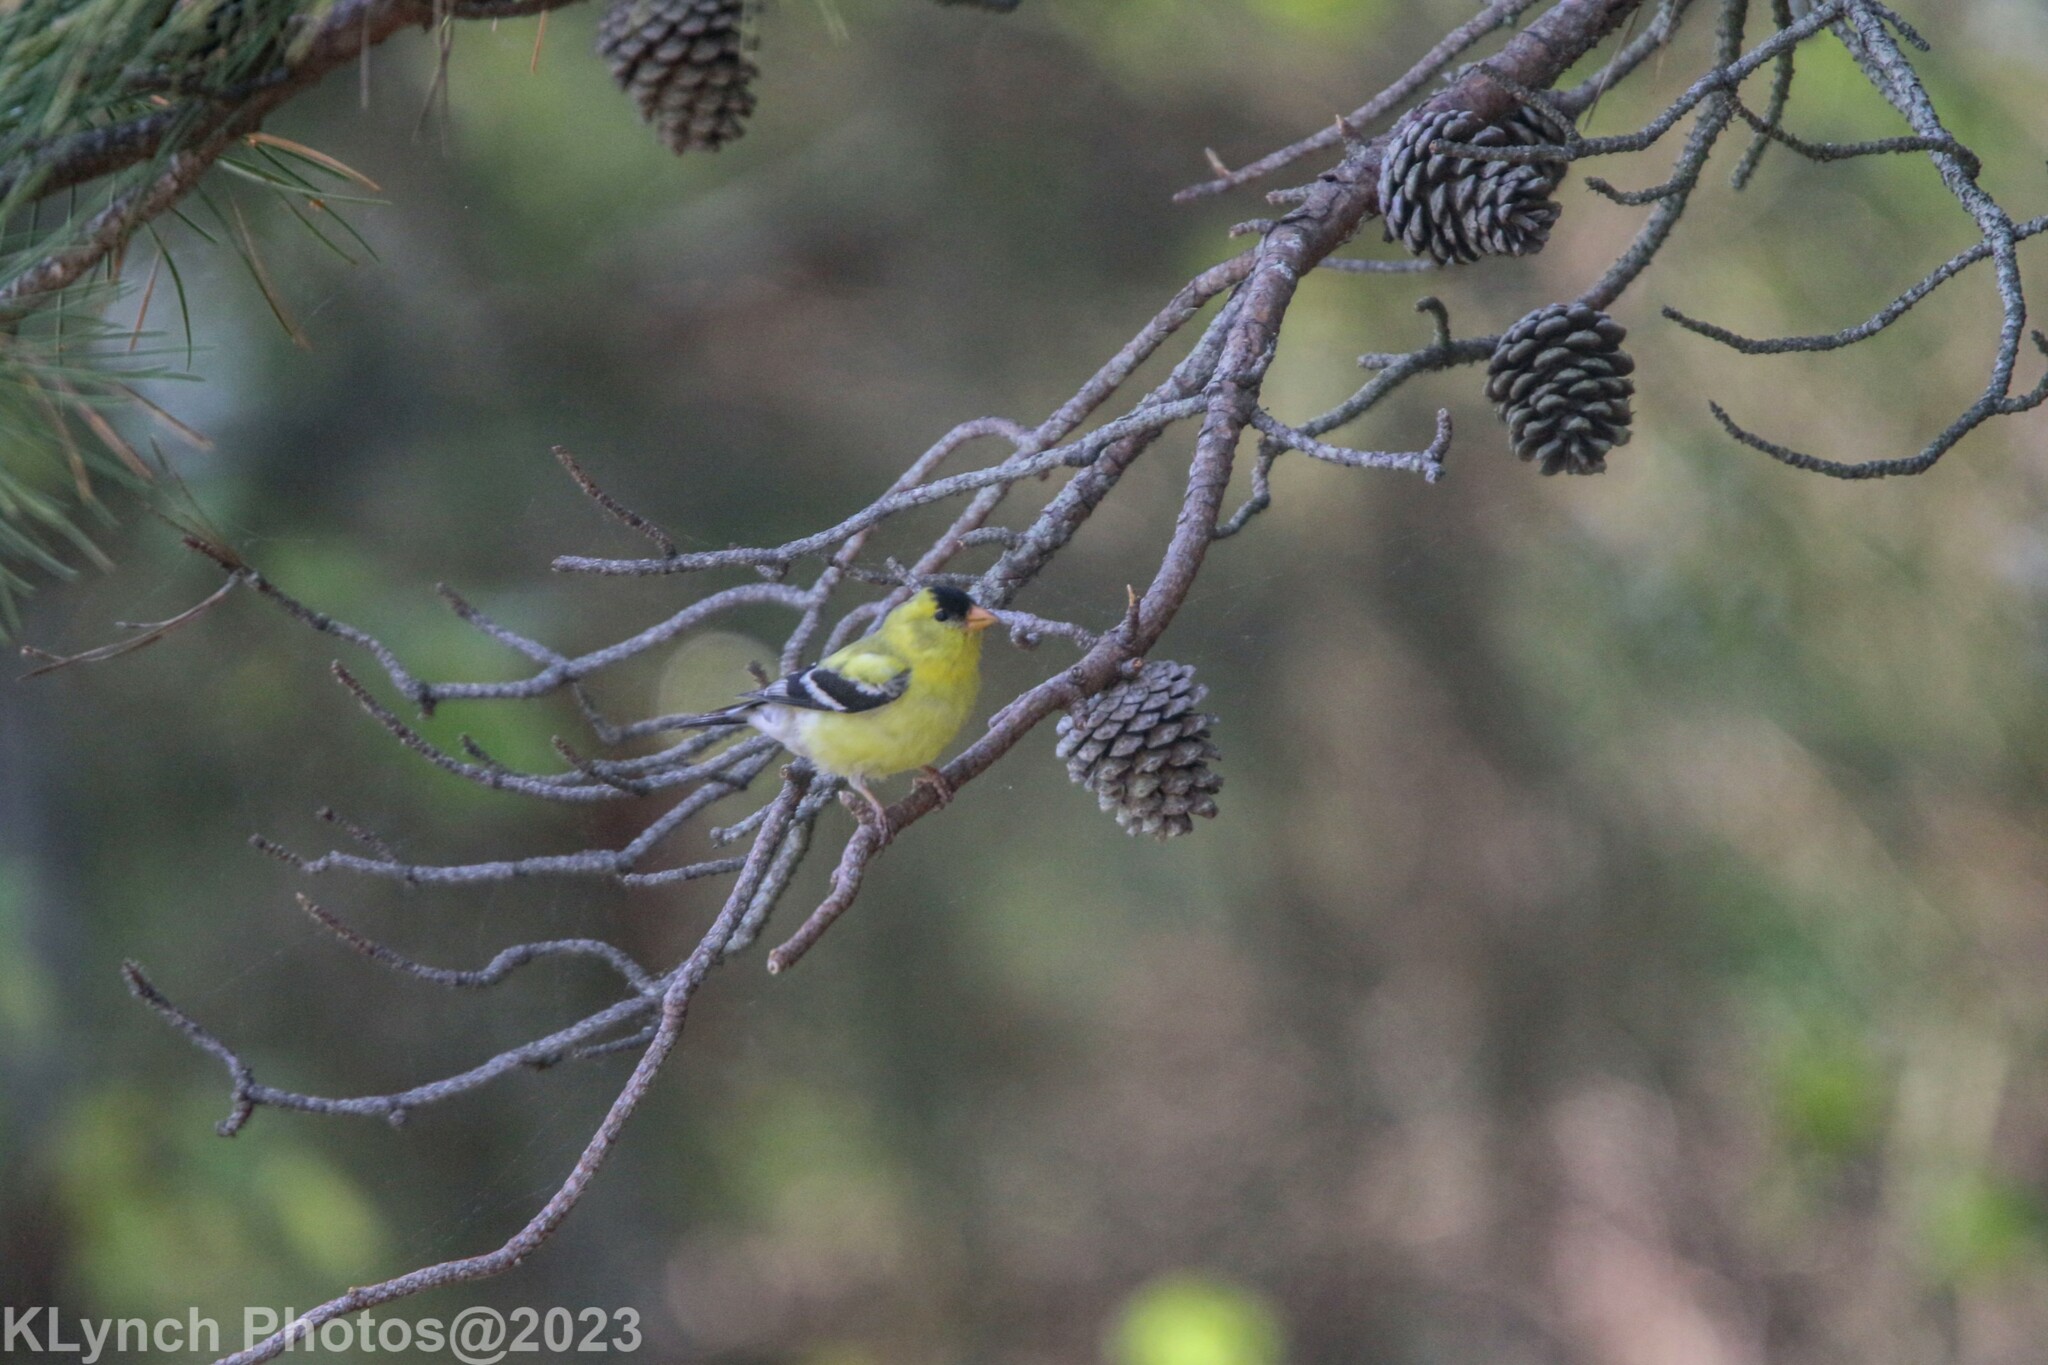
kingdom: Animalia
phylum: Chordata
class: Aves
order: Passeriformes
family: Fringillidae
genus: Spinus
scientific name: Spinus tristis
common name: American goldfinch
